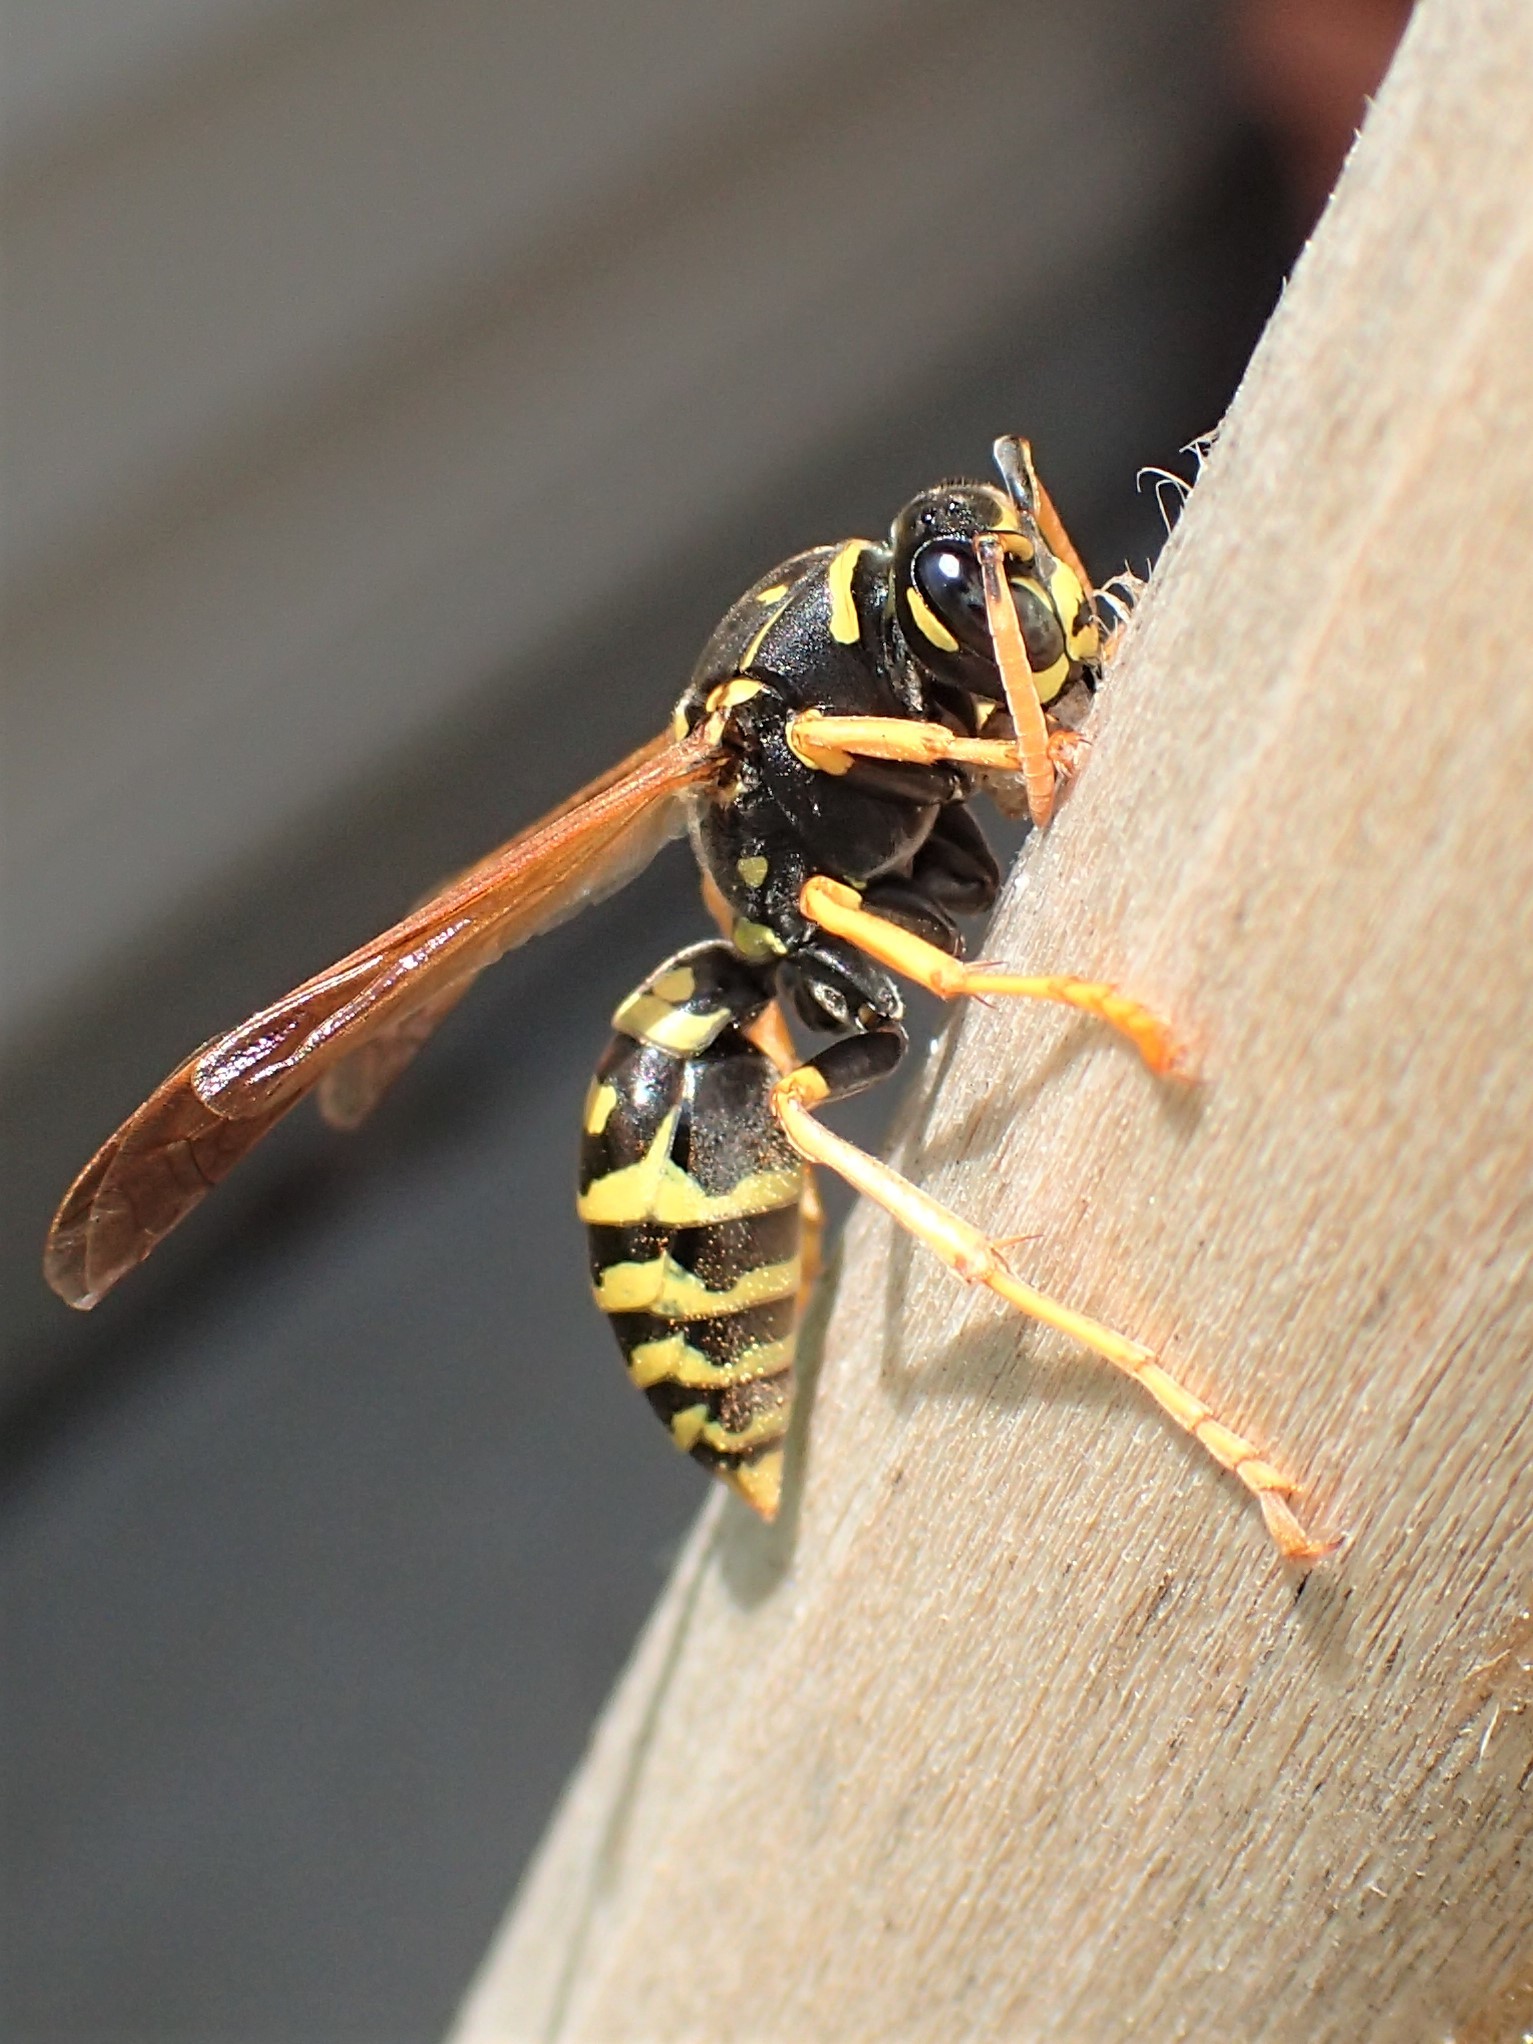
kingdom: Animalia
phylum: Arthropoda
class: Insecta
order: Hymenoptera
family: Eumenidae
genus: Polistes
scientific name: Polistes dominula
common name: Paper wasp
